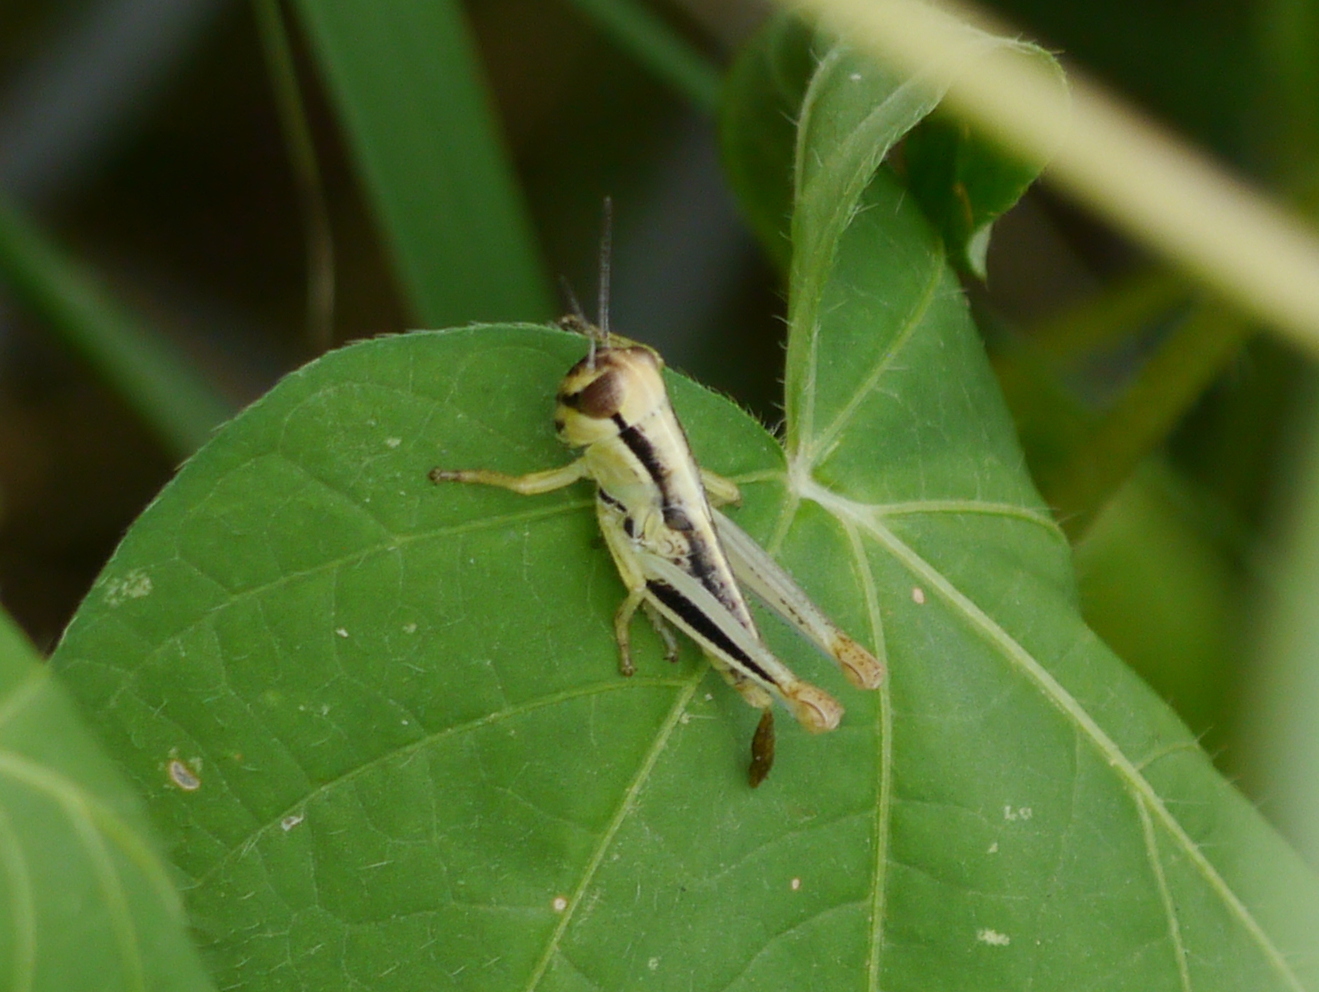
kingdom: Animalia
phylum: Arthropoda
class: Insecta
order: Orthoptera
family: Acrididae
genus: Phoetaliotes
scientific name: Phoetaliotes nebrascensis
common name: Large-headed grasshopper
